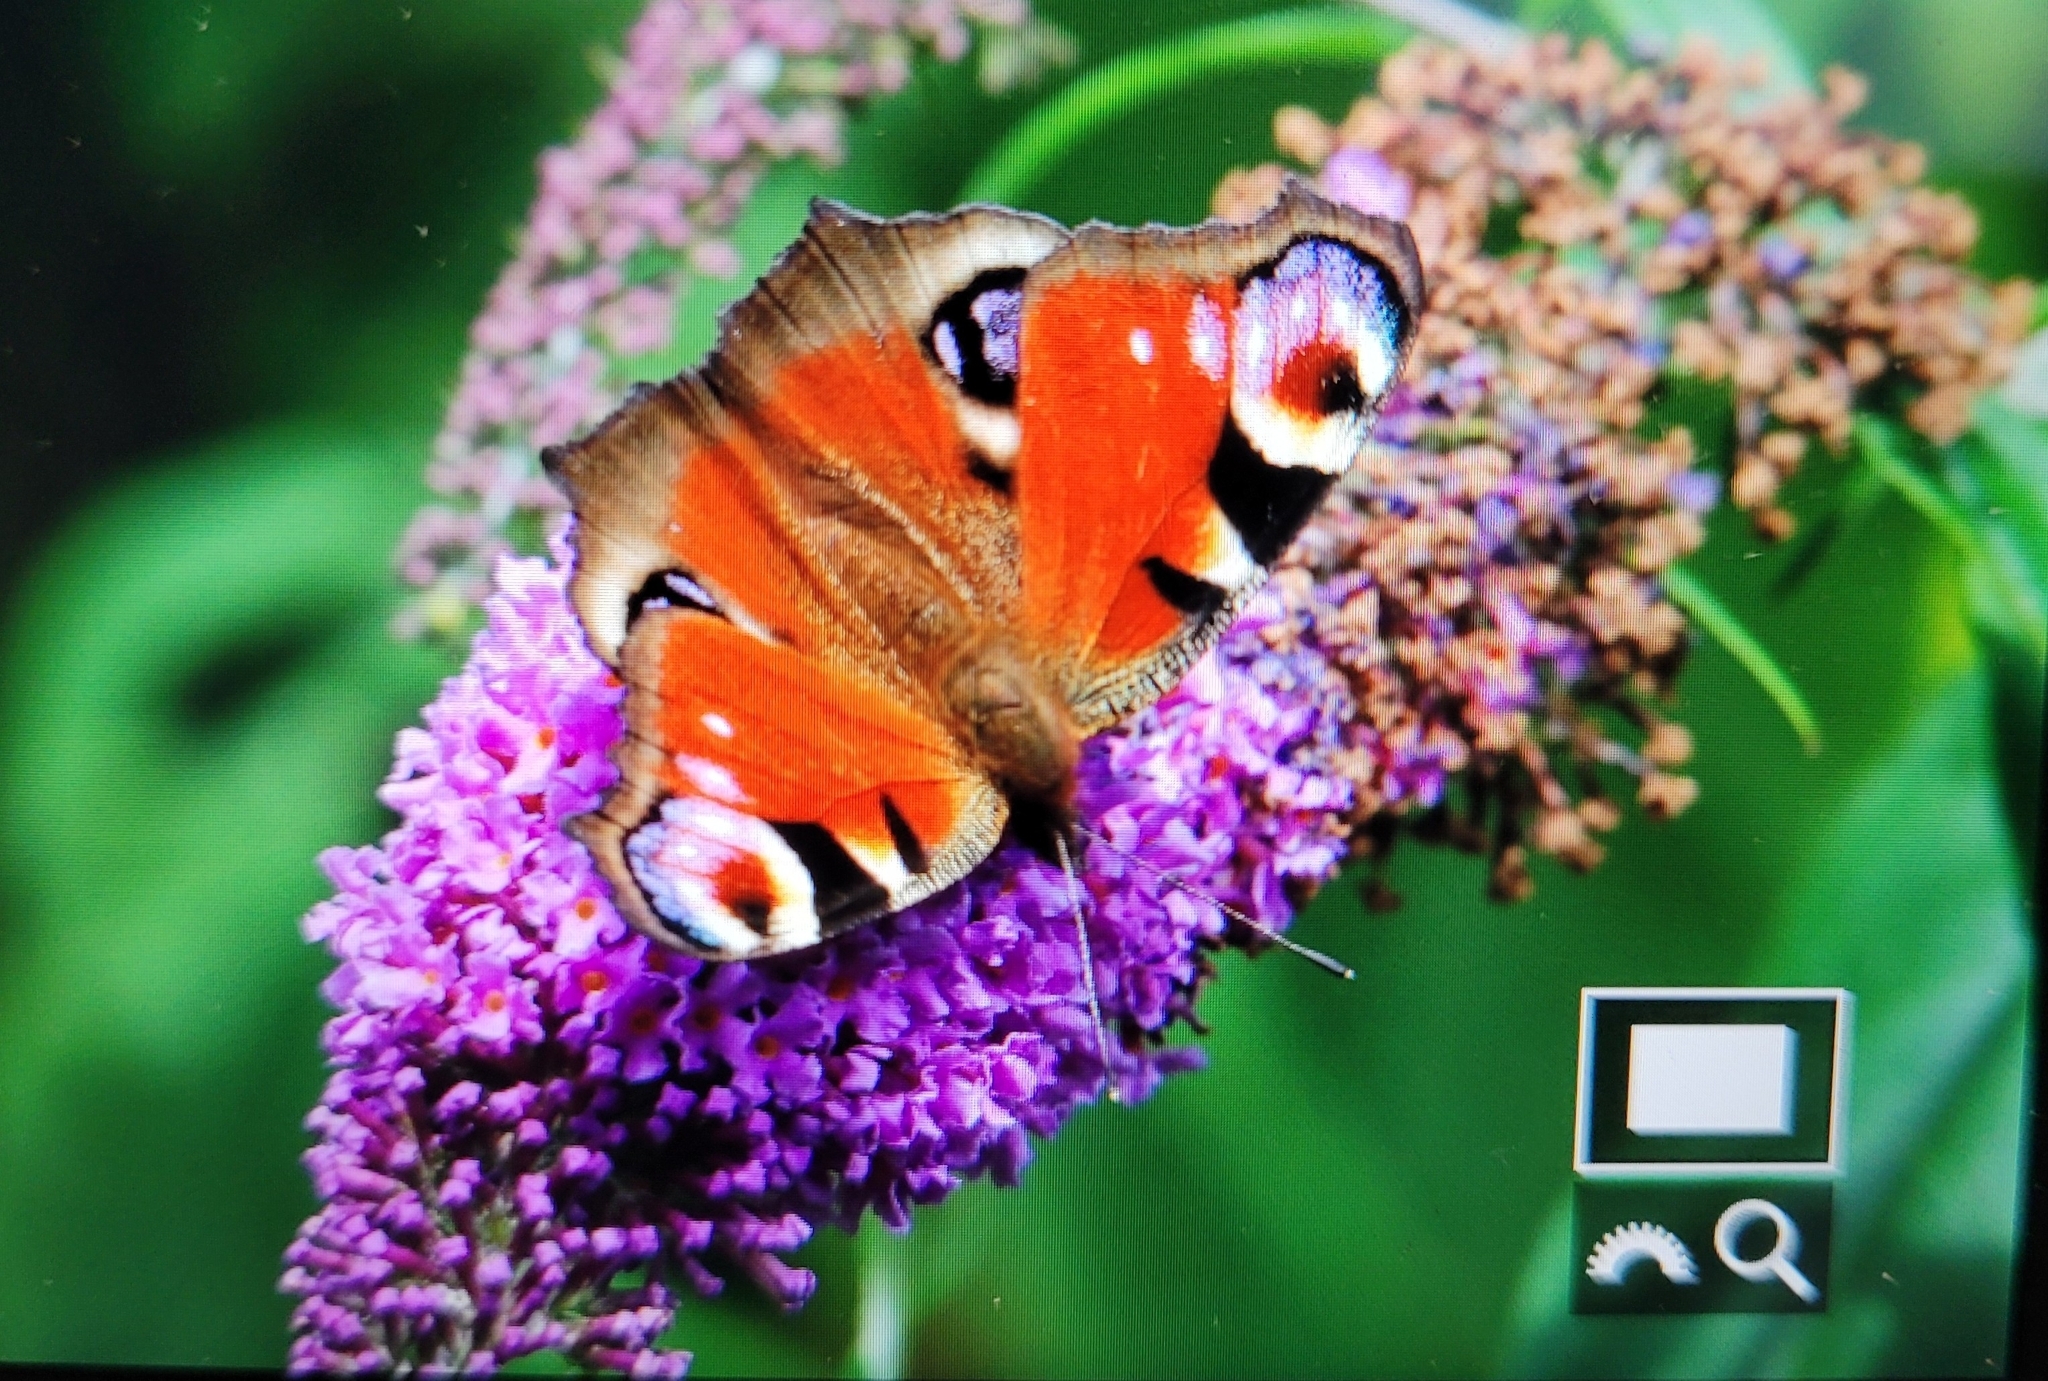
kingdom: Animalia
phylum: Arthropoda
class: Insecta
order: Lepidoptera
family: Nymphalidae
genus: Aglais
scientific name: Aglais io
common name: Peacock
